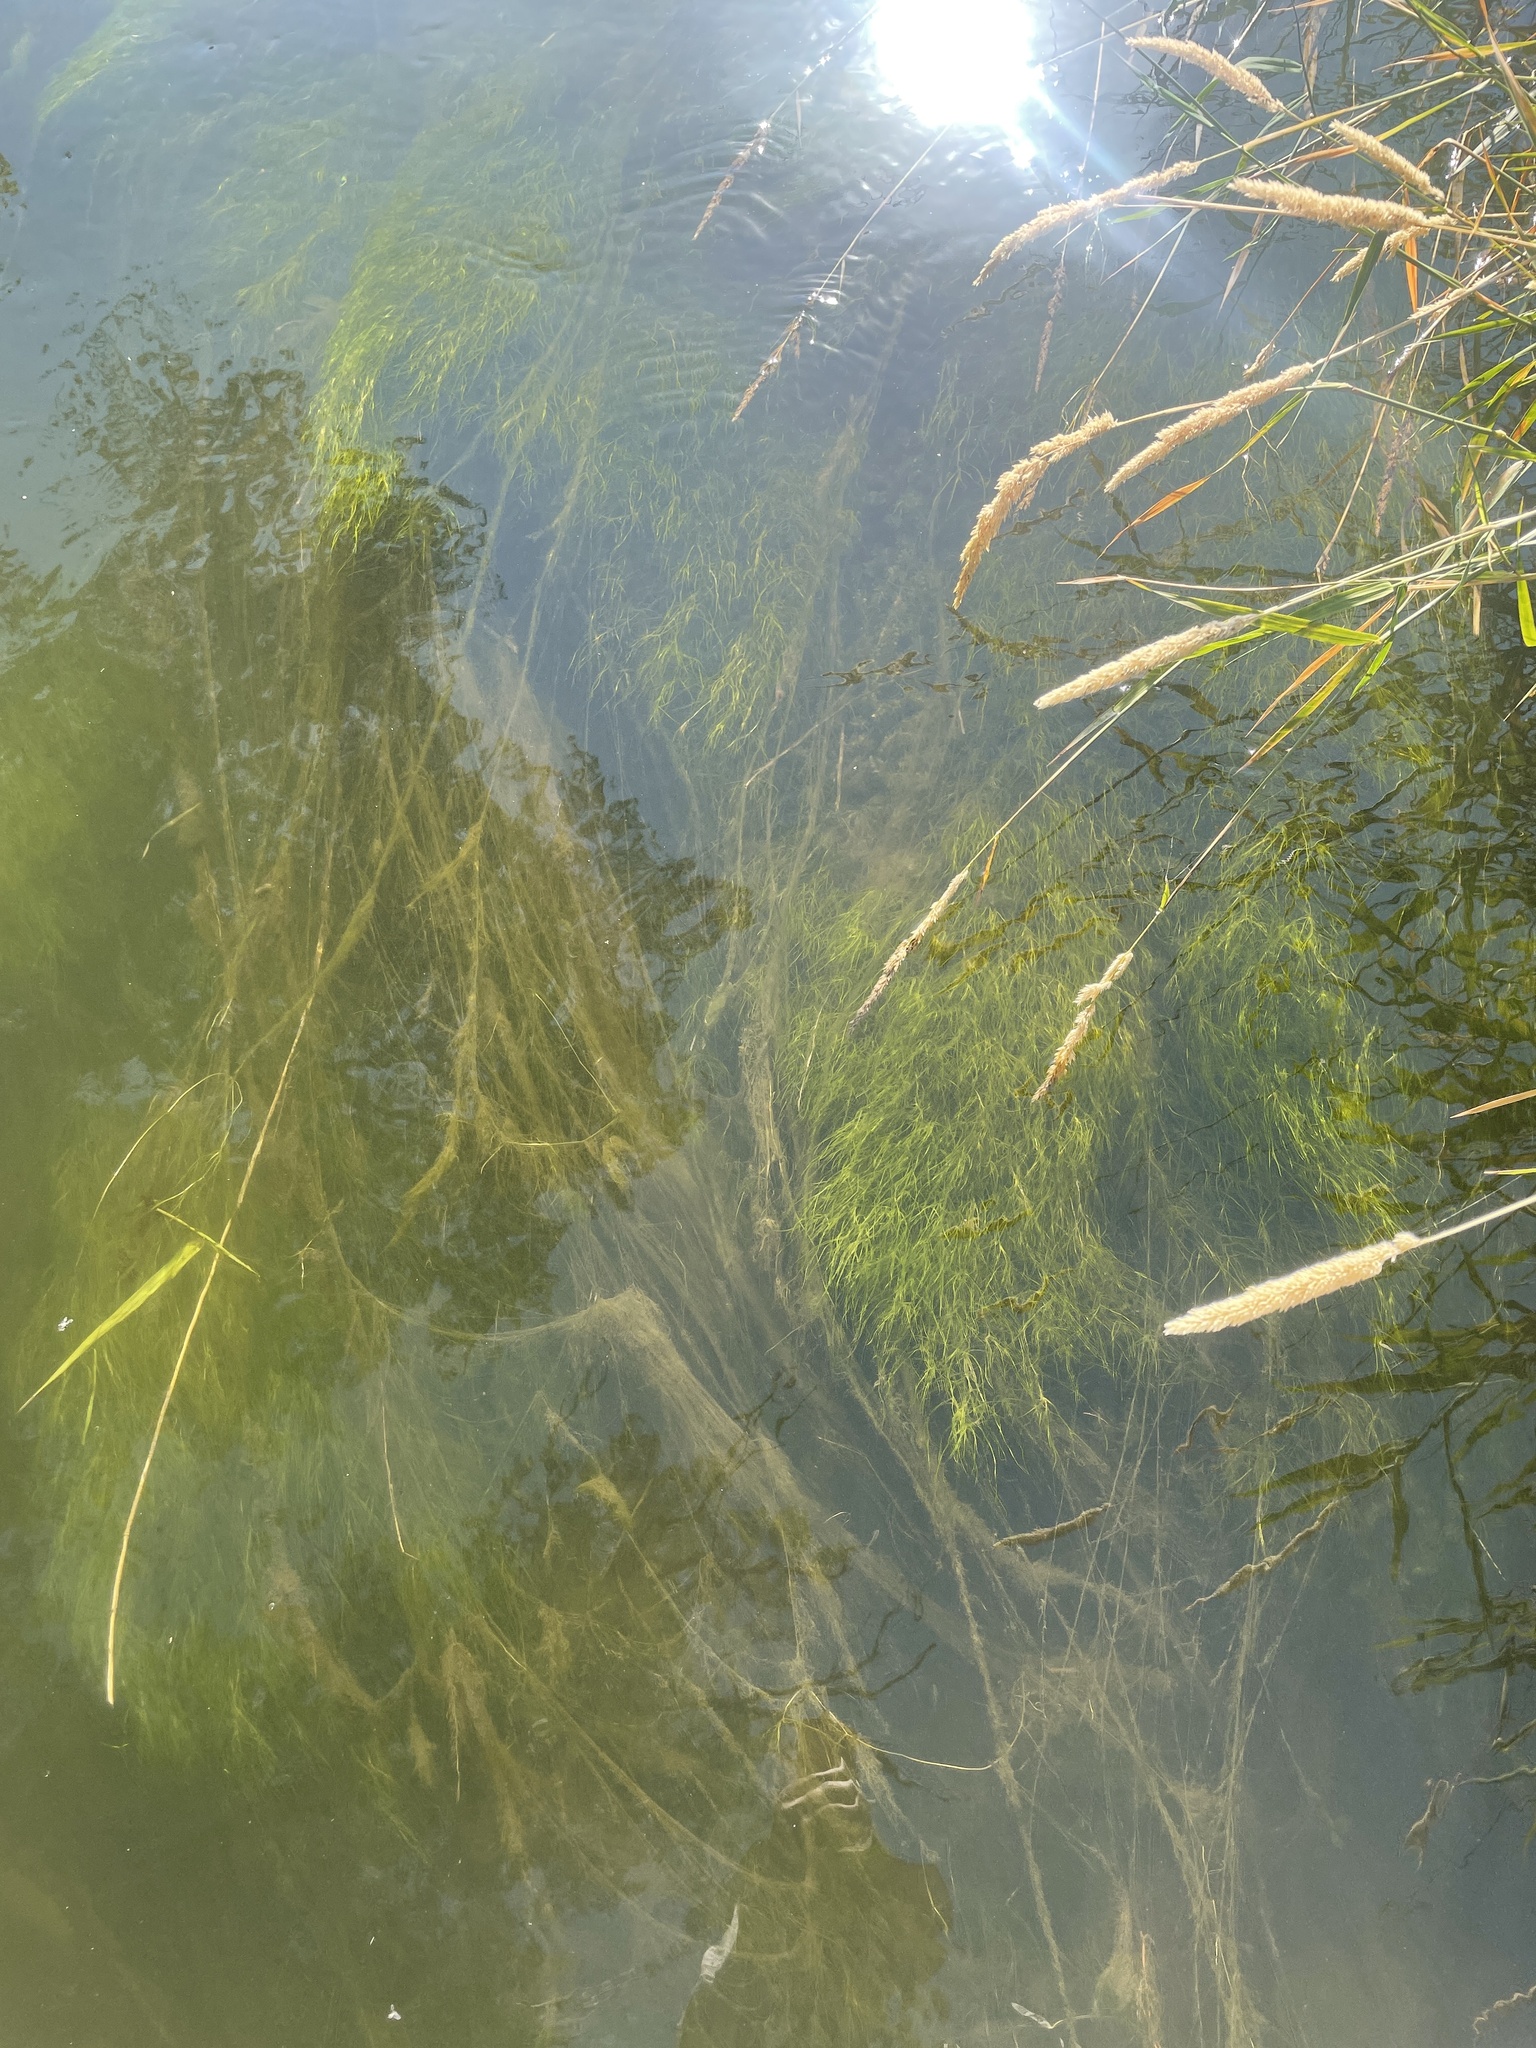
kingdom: Plantae
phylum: Tracheophyta
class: Liliopsida
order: Alismatales
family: Potamogetonaceae
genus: Zannichellia
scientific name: Zannichellia palustris
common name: Horned pondweed
